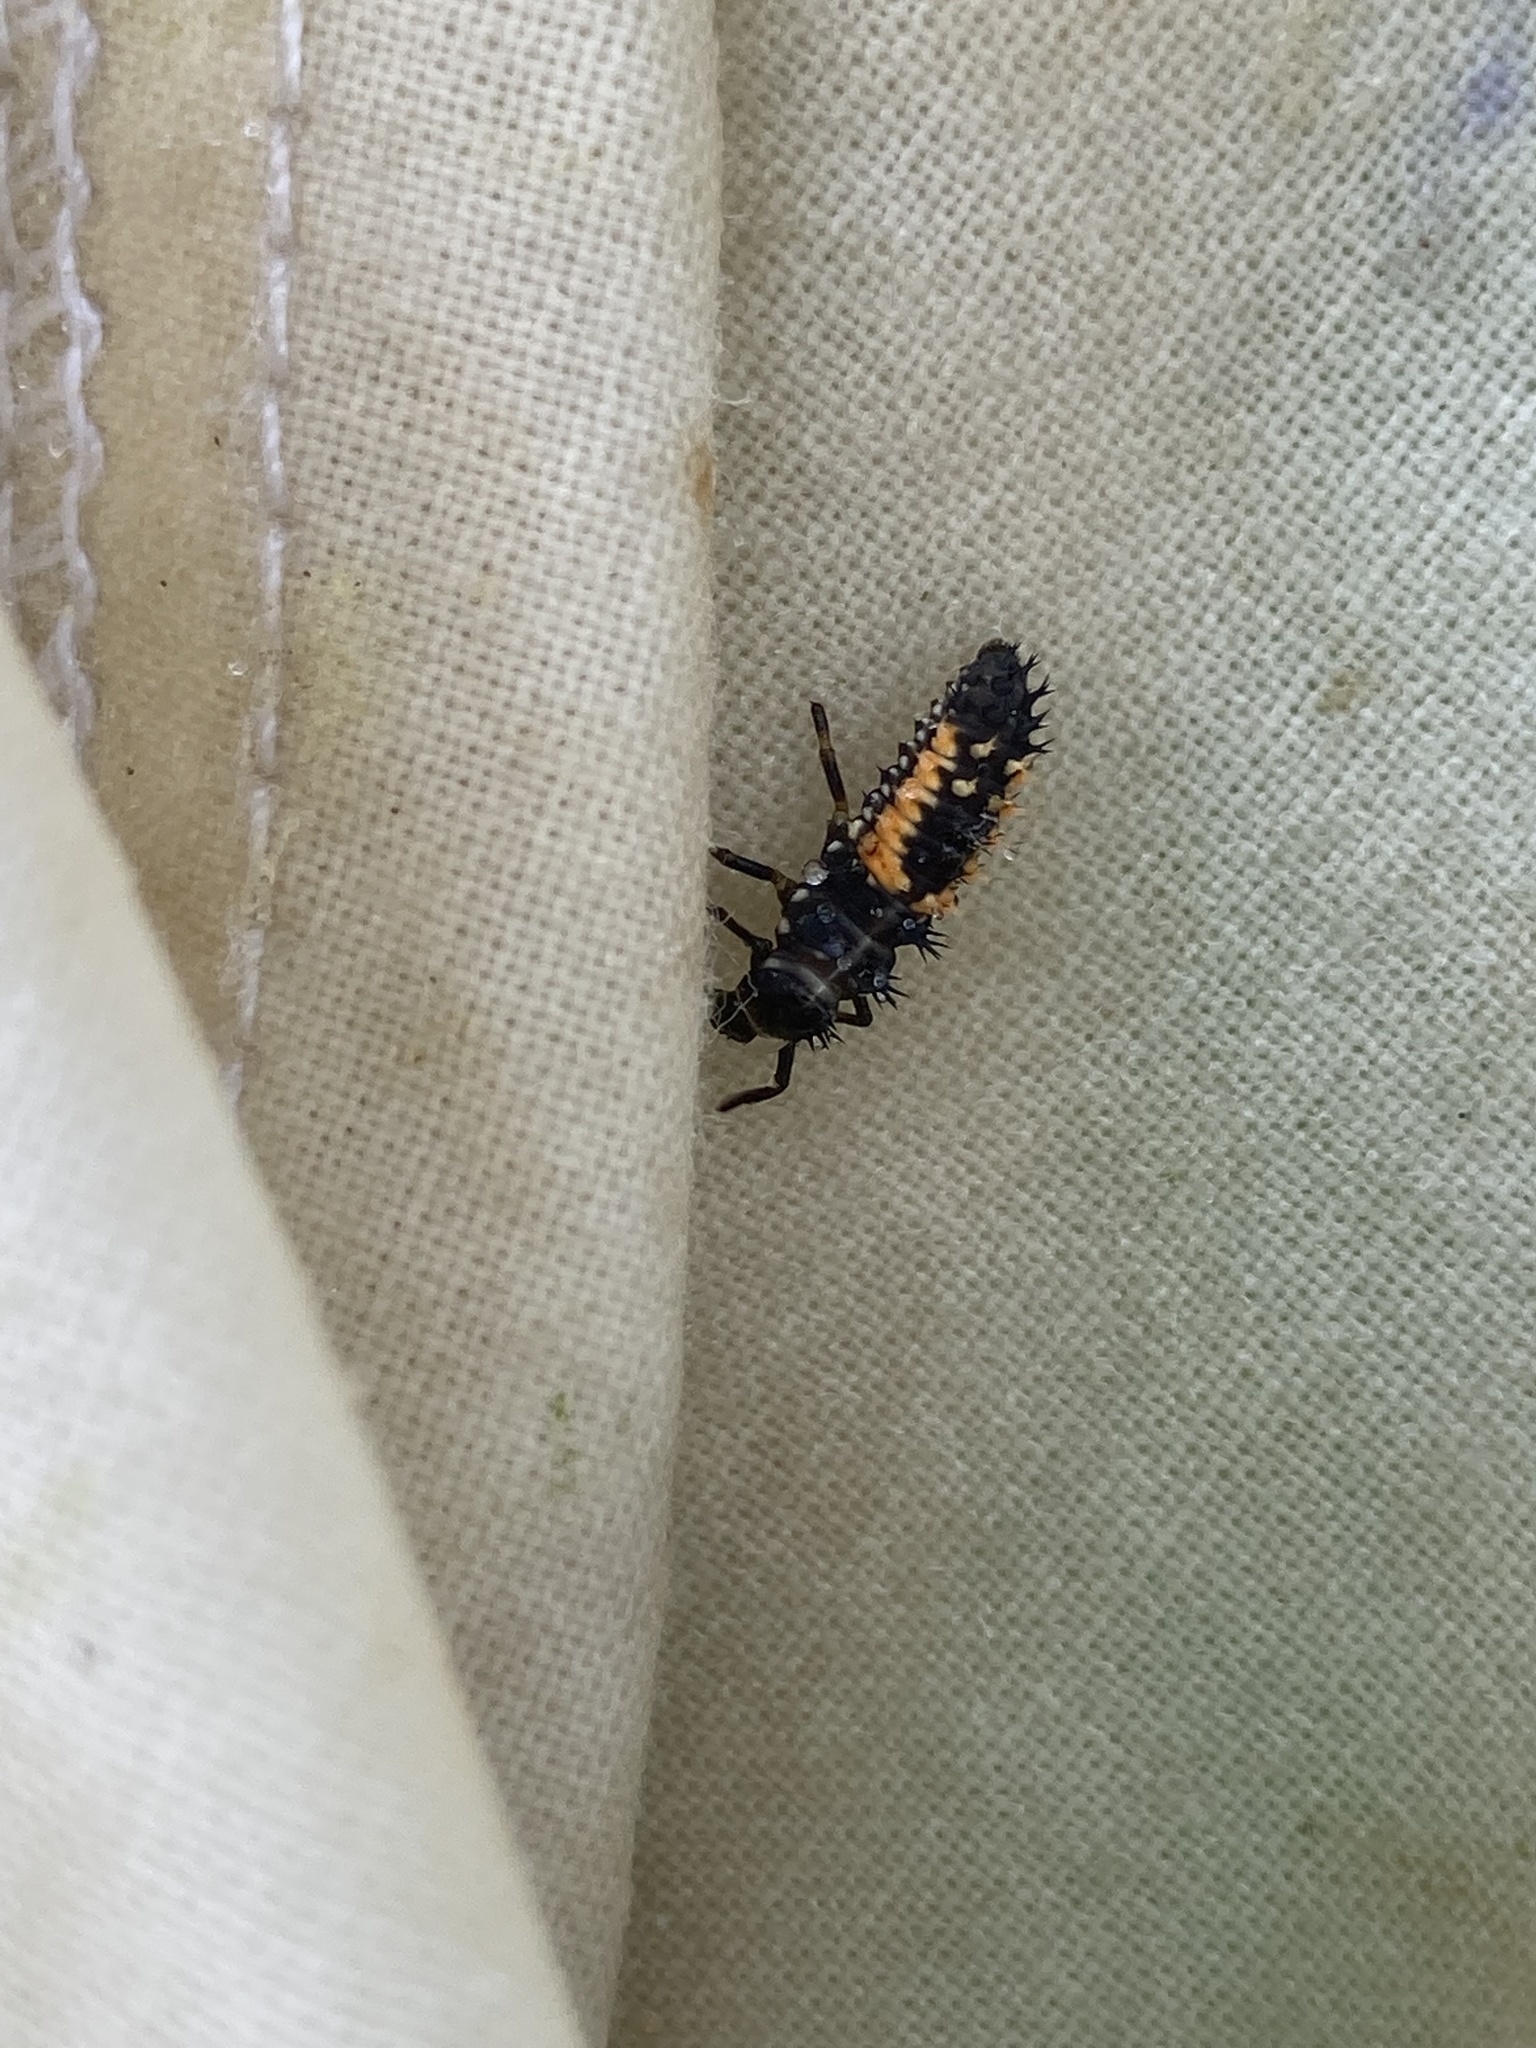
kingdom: Animalia
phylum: Arthropoda
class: Insecta
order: Coleoptera
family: Coccinellidae
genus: Harmonia
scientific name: Harmonia axyridis
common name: Harlequin ladybird
